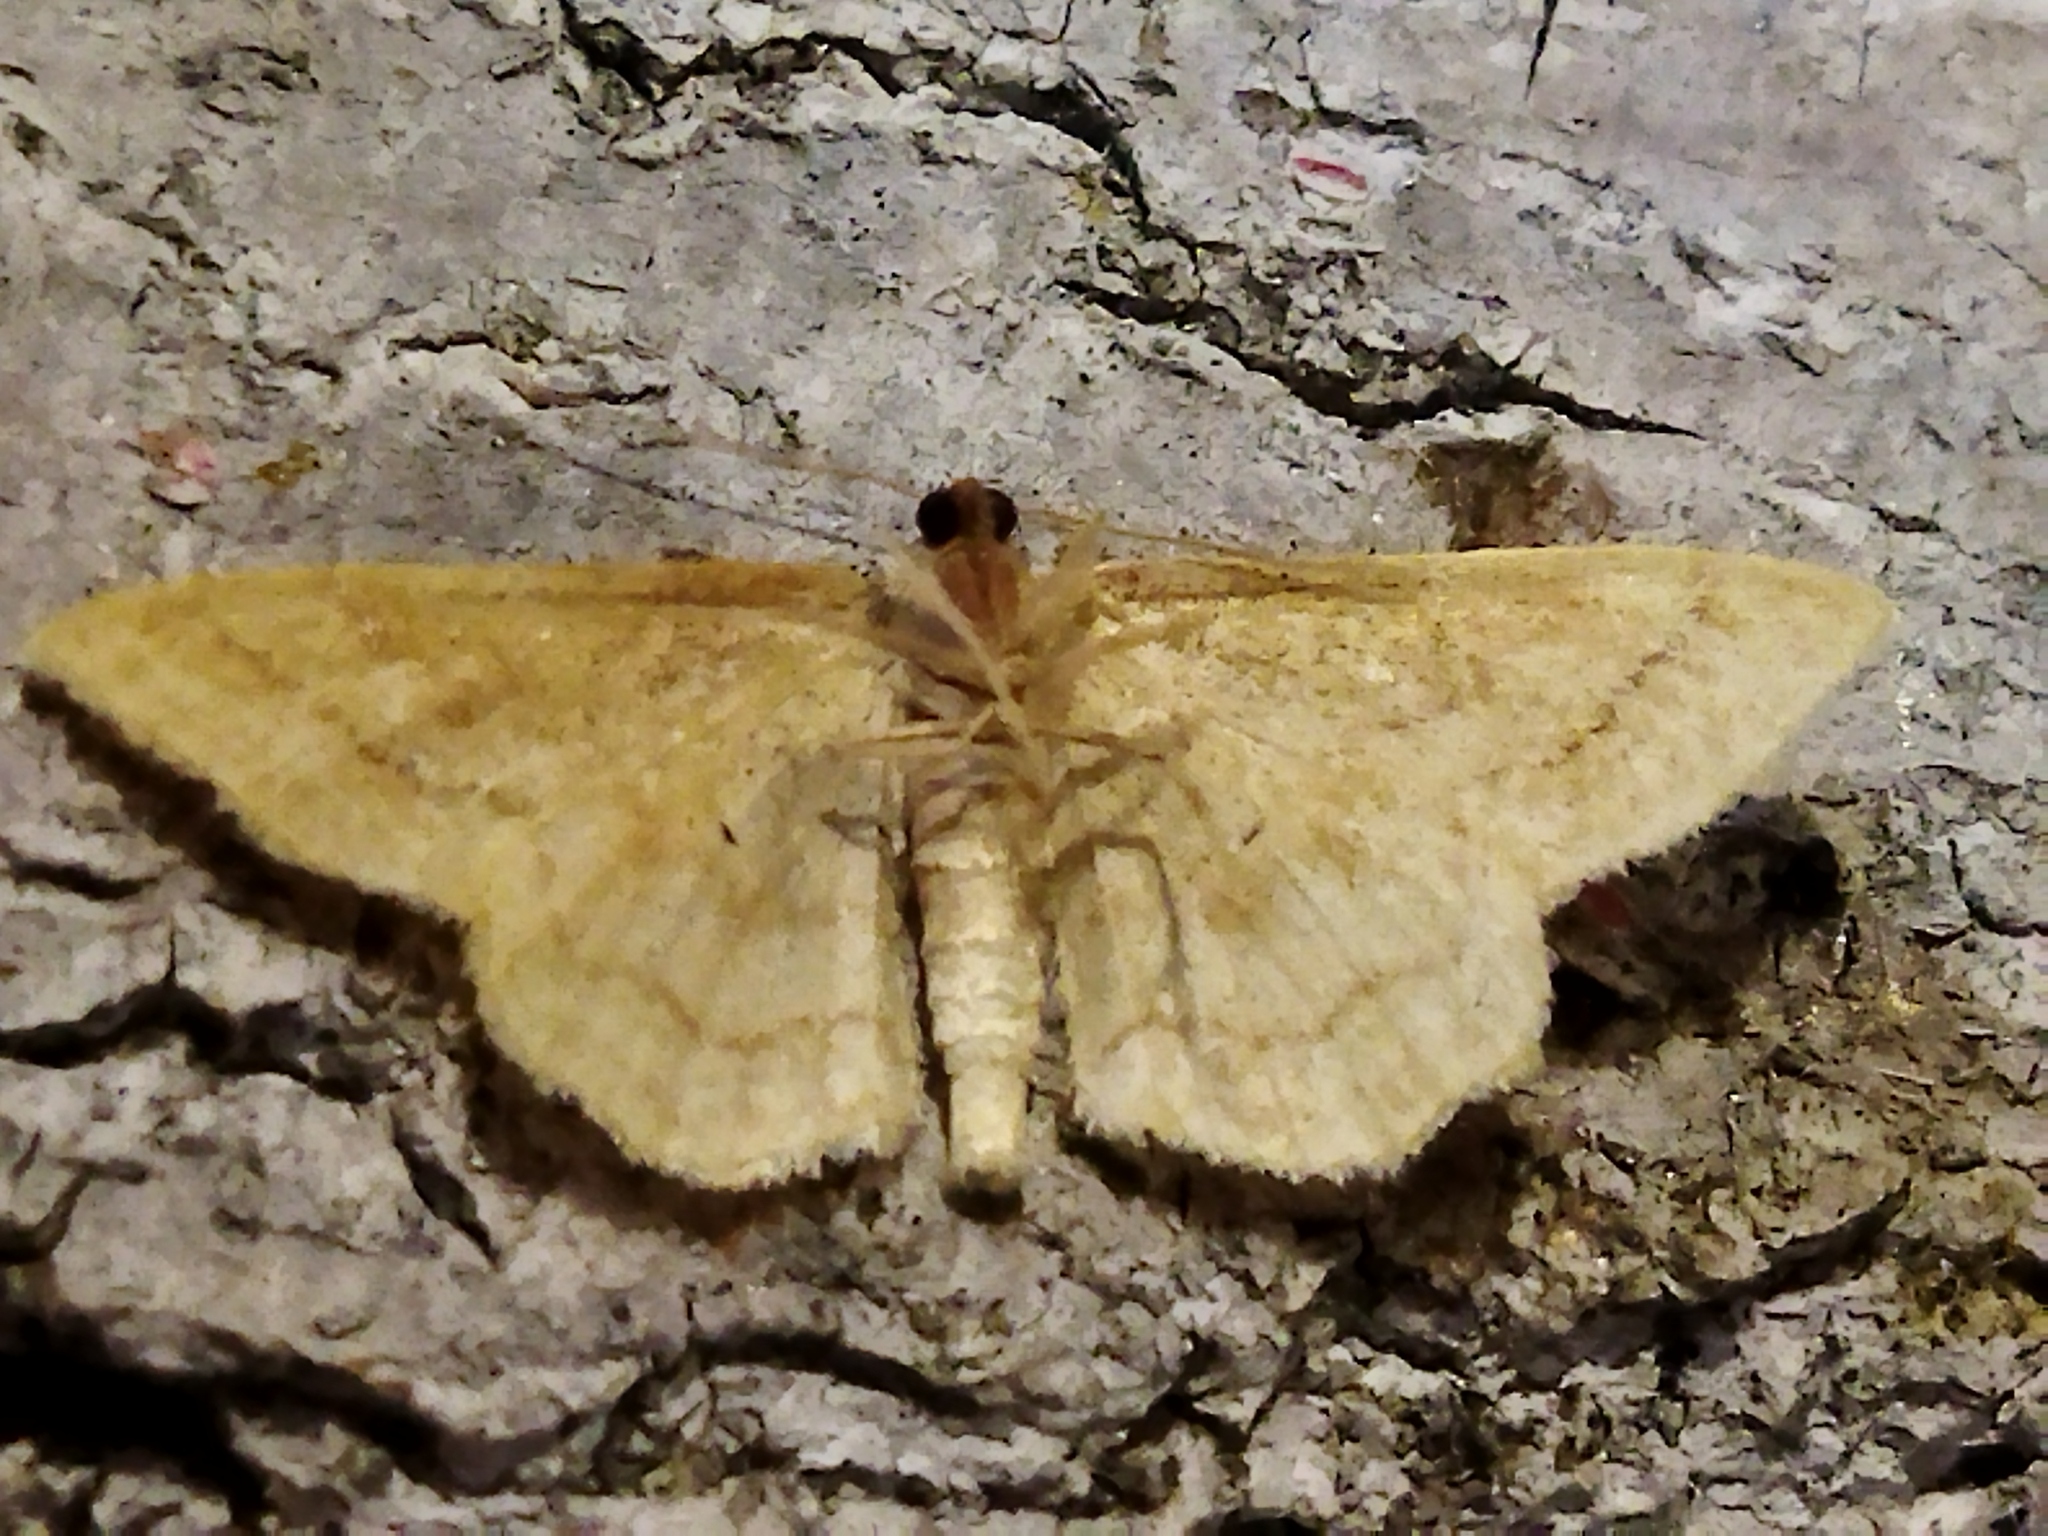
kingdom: Animalia
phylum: Arthropoda
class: Insecta
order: Lepidoptera
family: Geometridae
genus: Idaea
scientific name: Idaea rufaria
